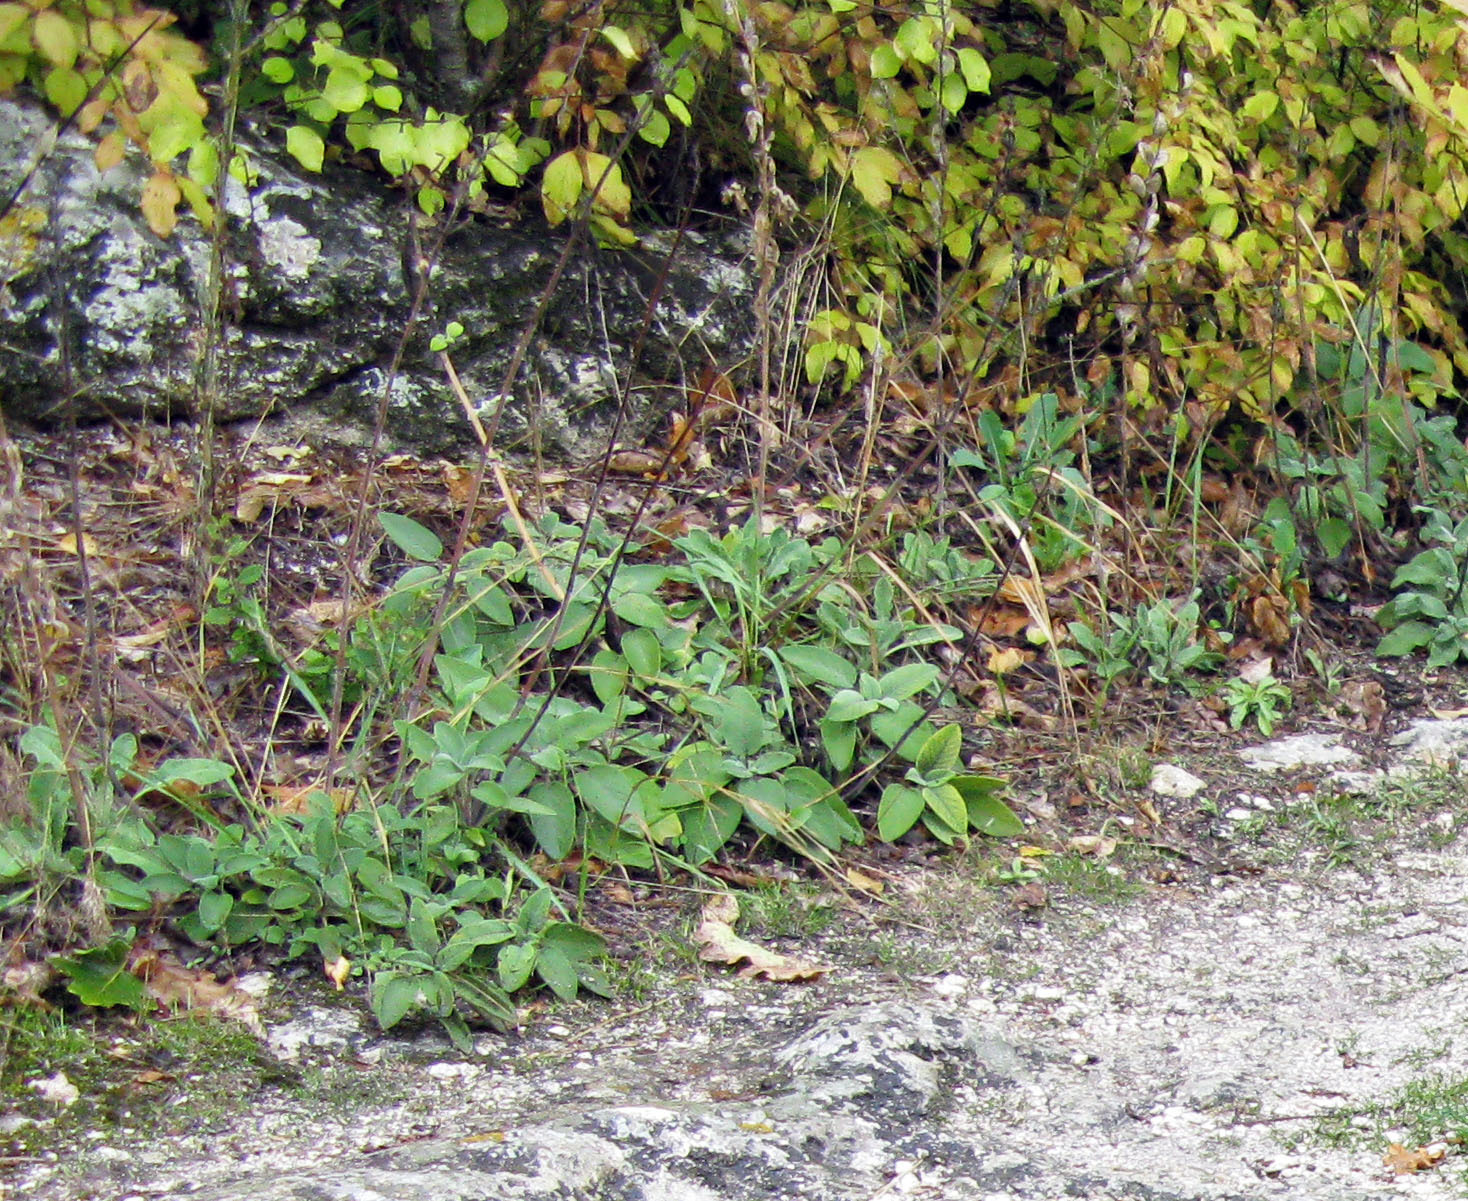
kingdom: Plantae
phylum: Tracheophyta
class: Magnoliopsida
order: Lamiales
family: Lamiaceae
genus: Salvia
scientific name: Salvia tomentosa
